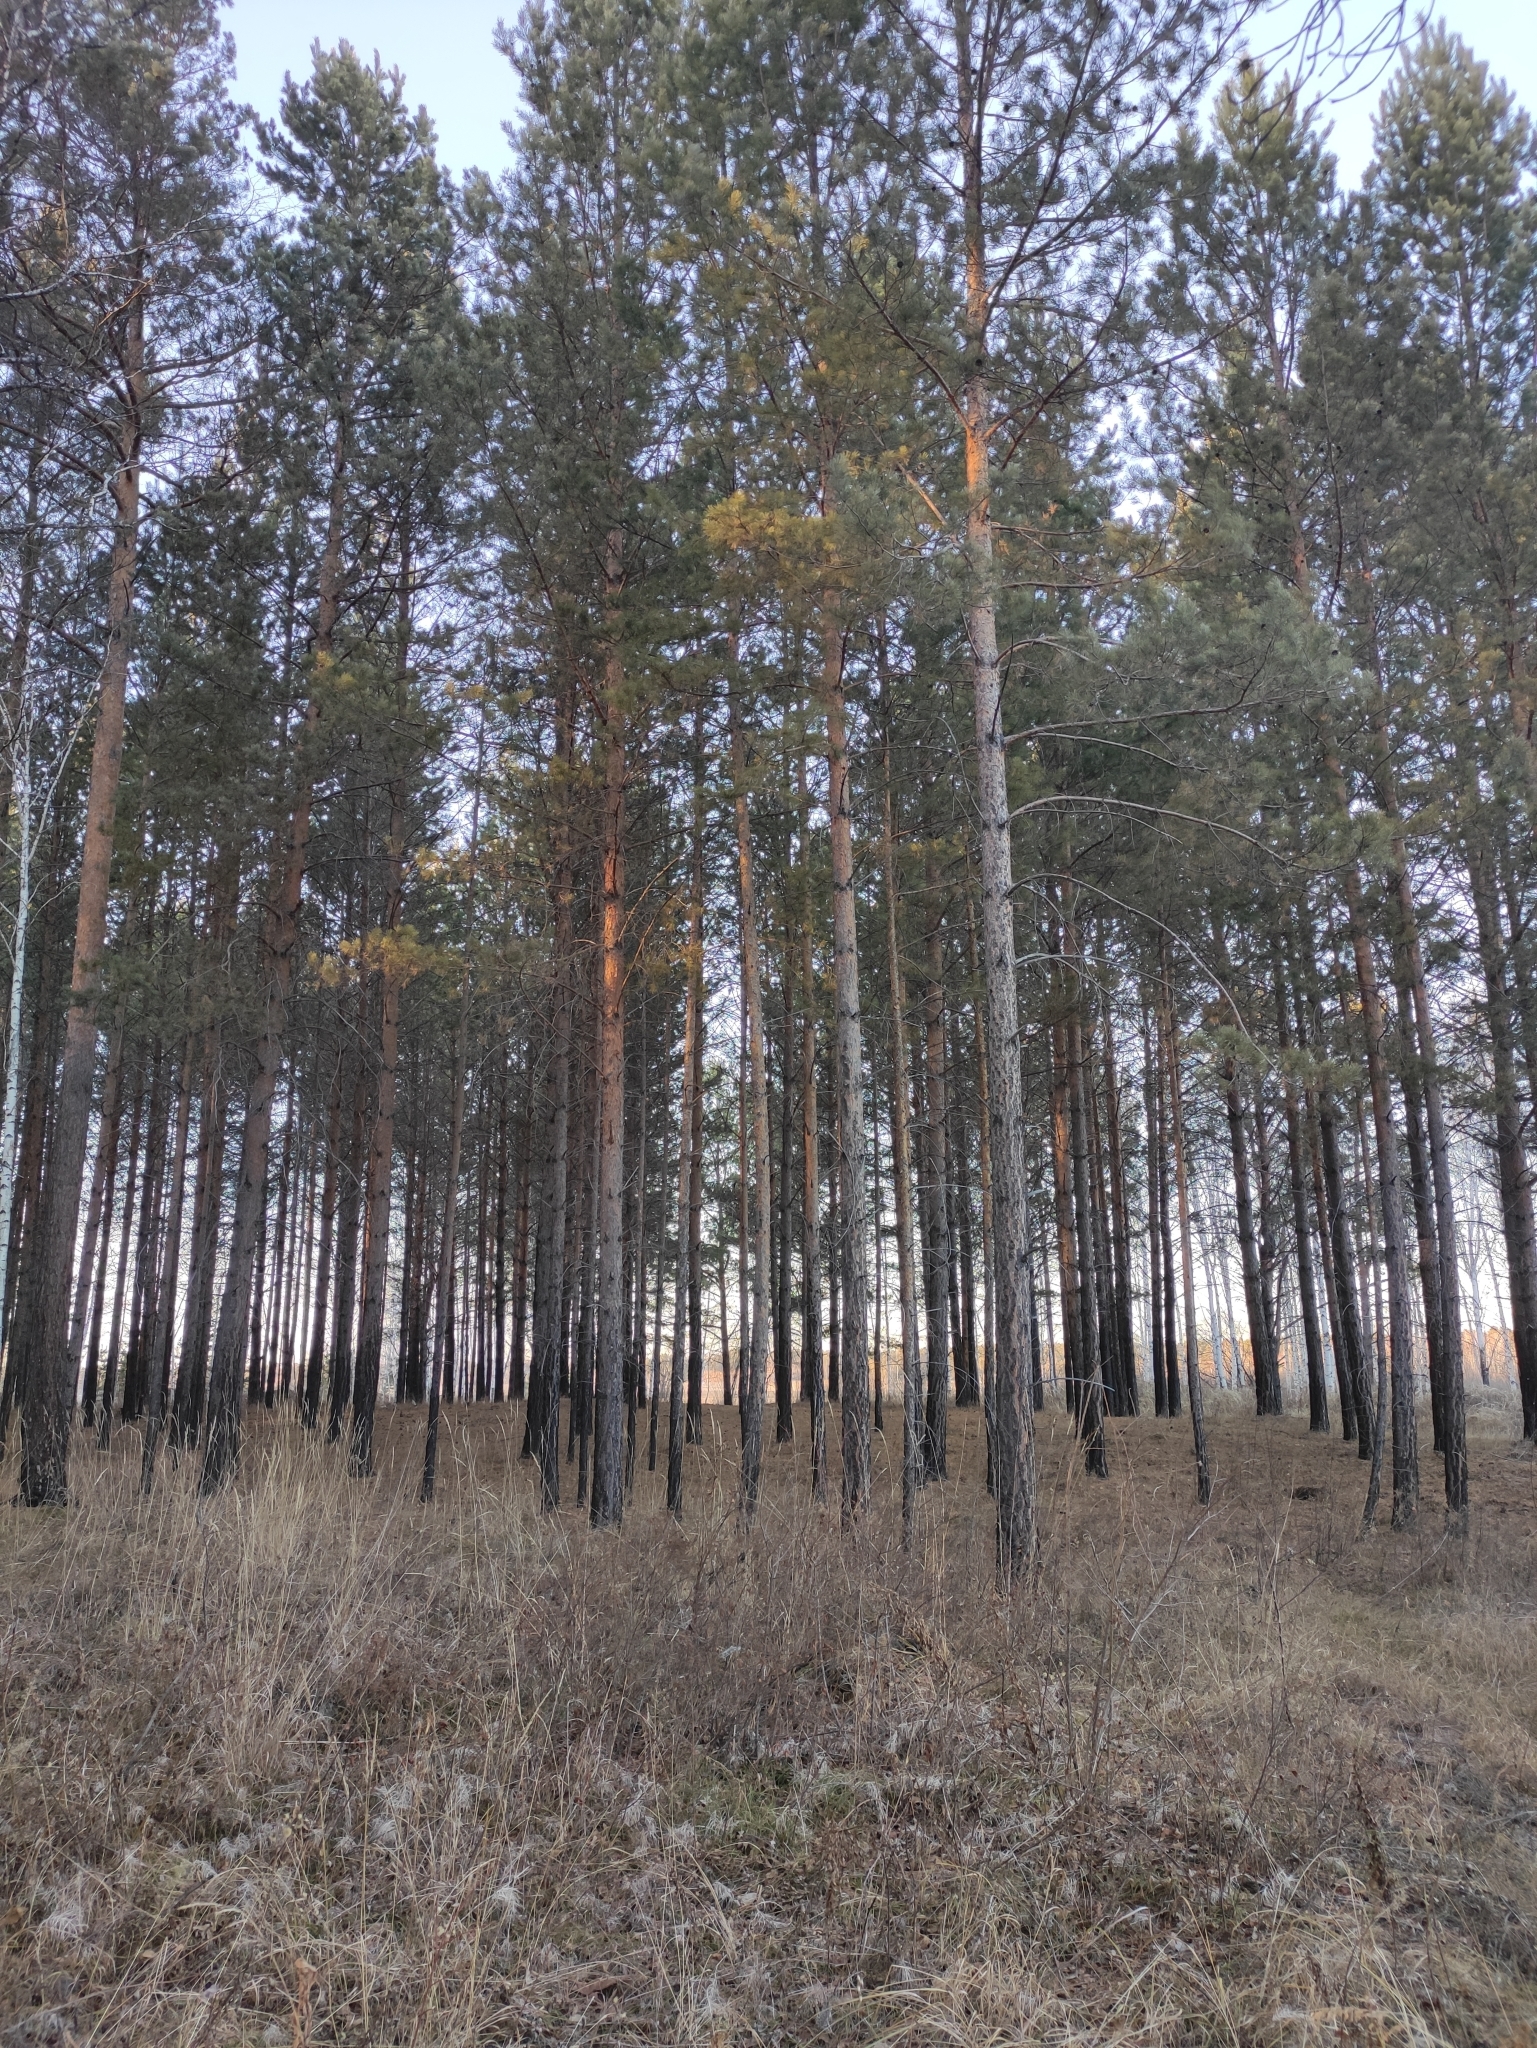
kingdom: Plantae
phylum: Tracheophyta
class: Pinopsida
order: Pinales
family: Pinaceae
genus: Pinus
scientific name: Pinus sylvestris
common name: Scots pine
